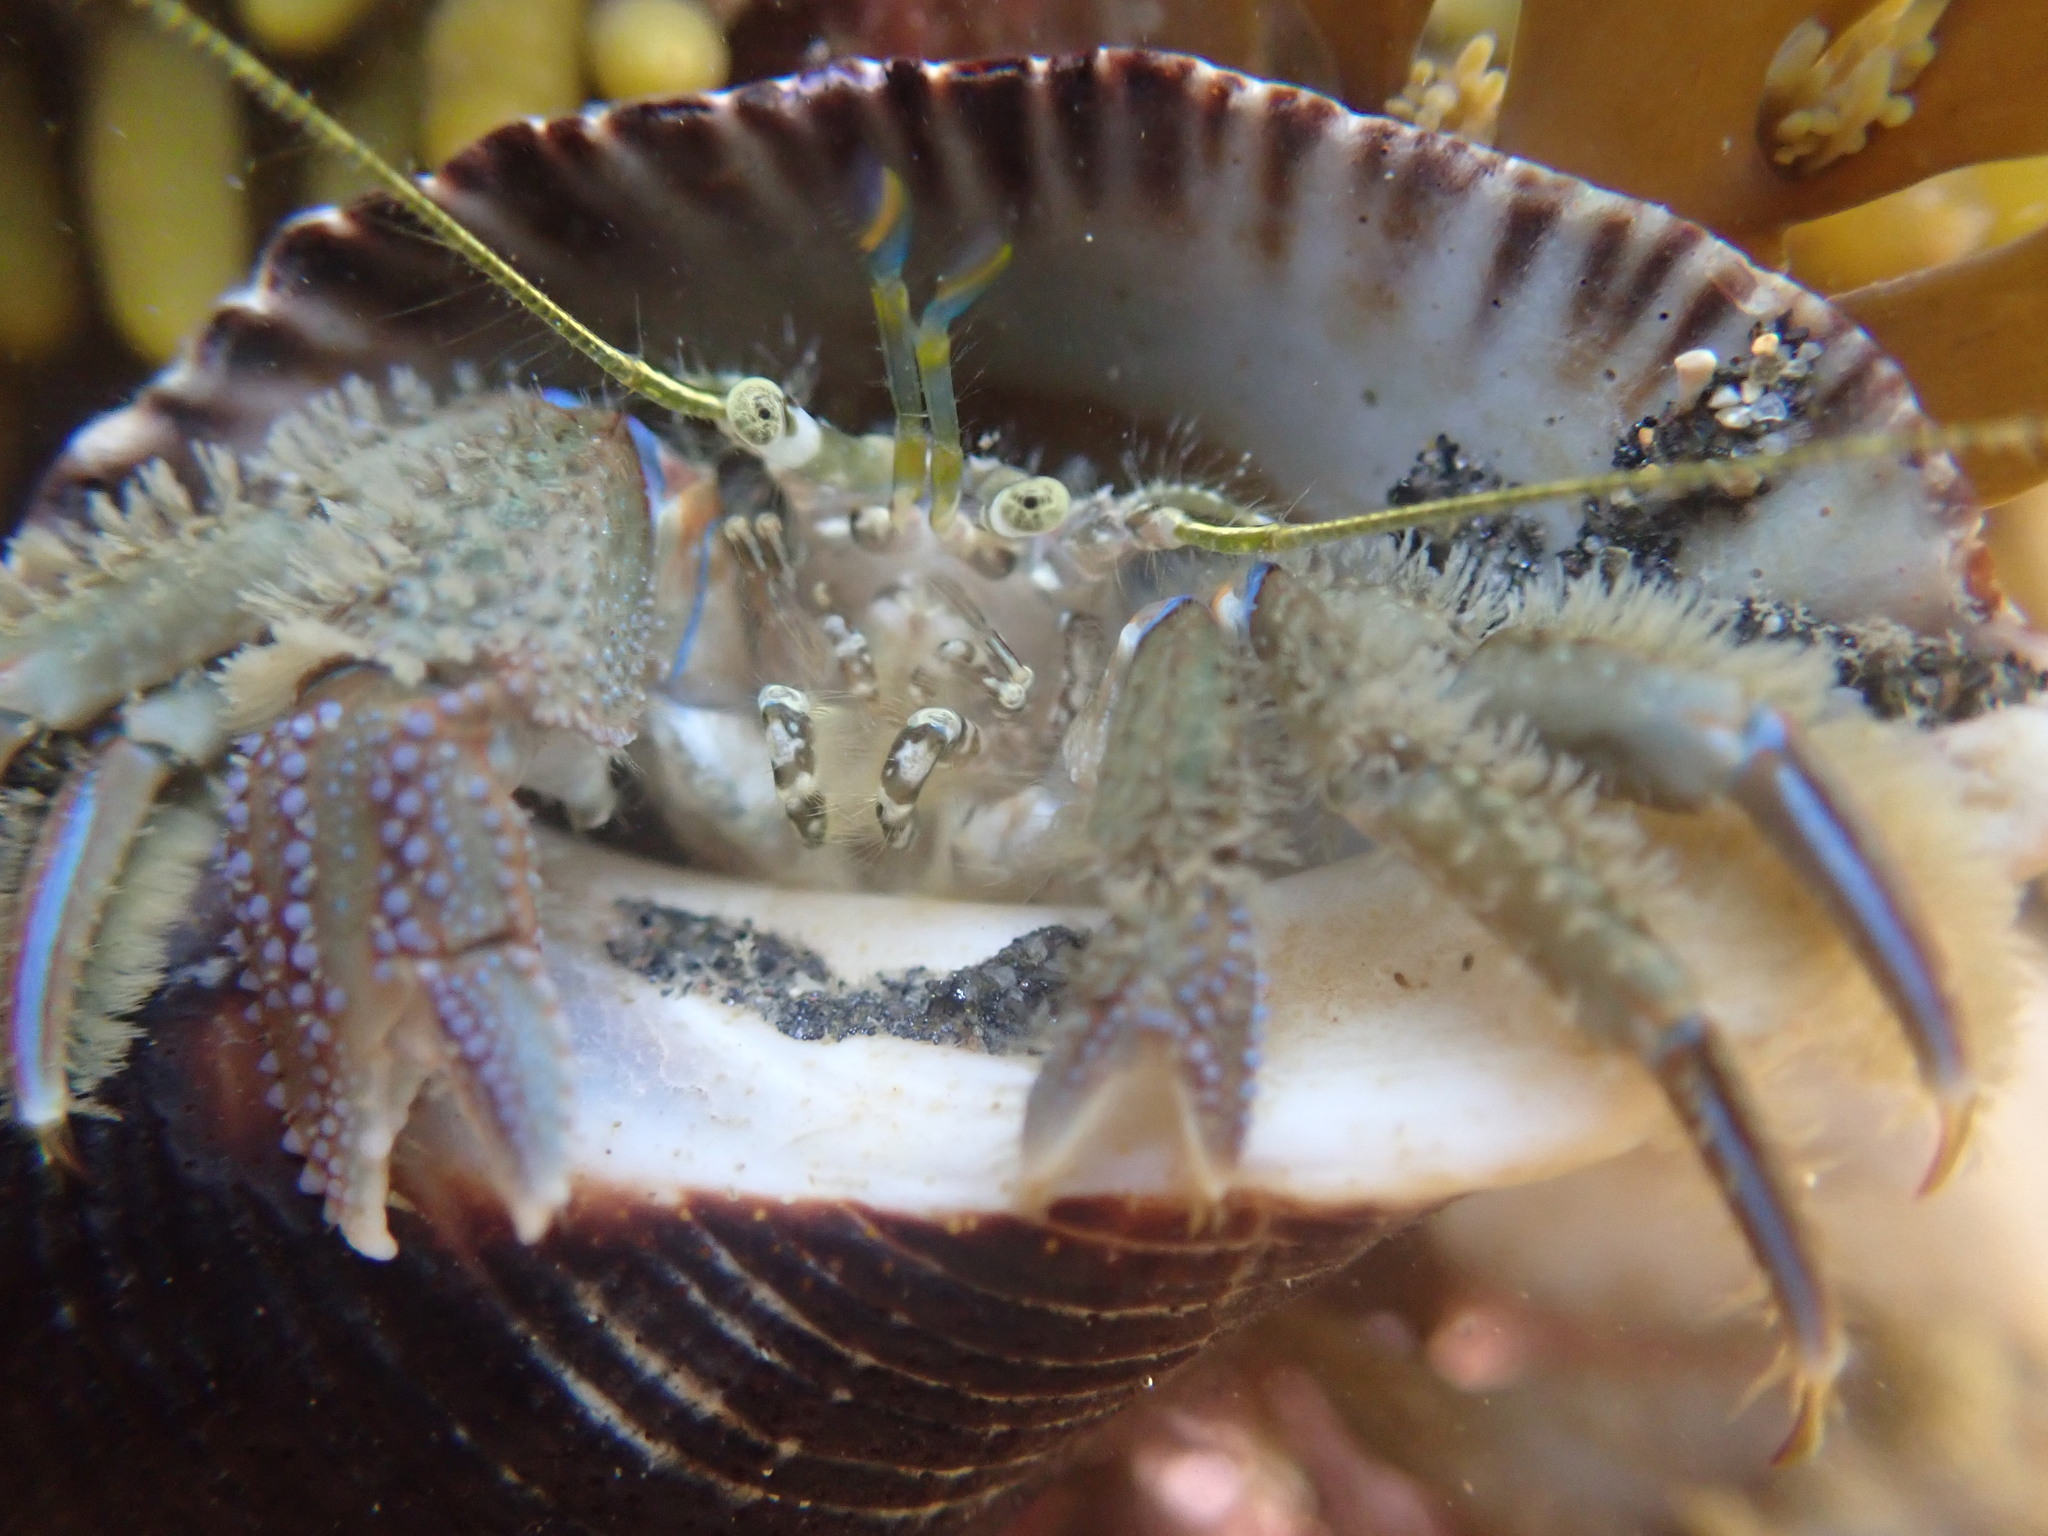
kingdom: Animalia
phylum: Arthropoda
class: Malacostraca
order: Decapoda
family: Paguridae
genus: Pagurus
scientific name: Pagurus novizealandiae
